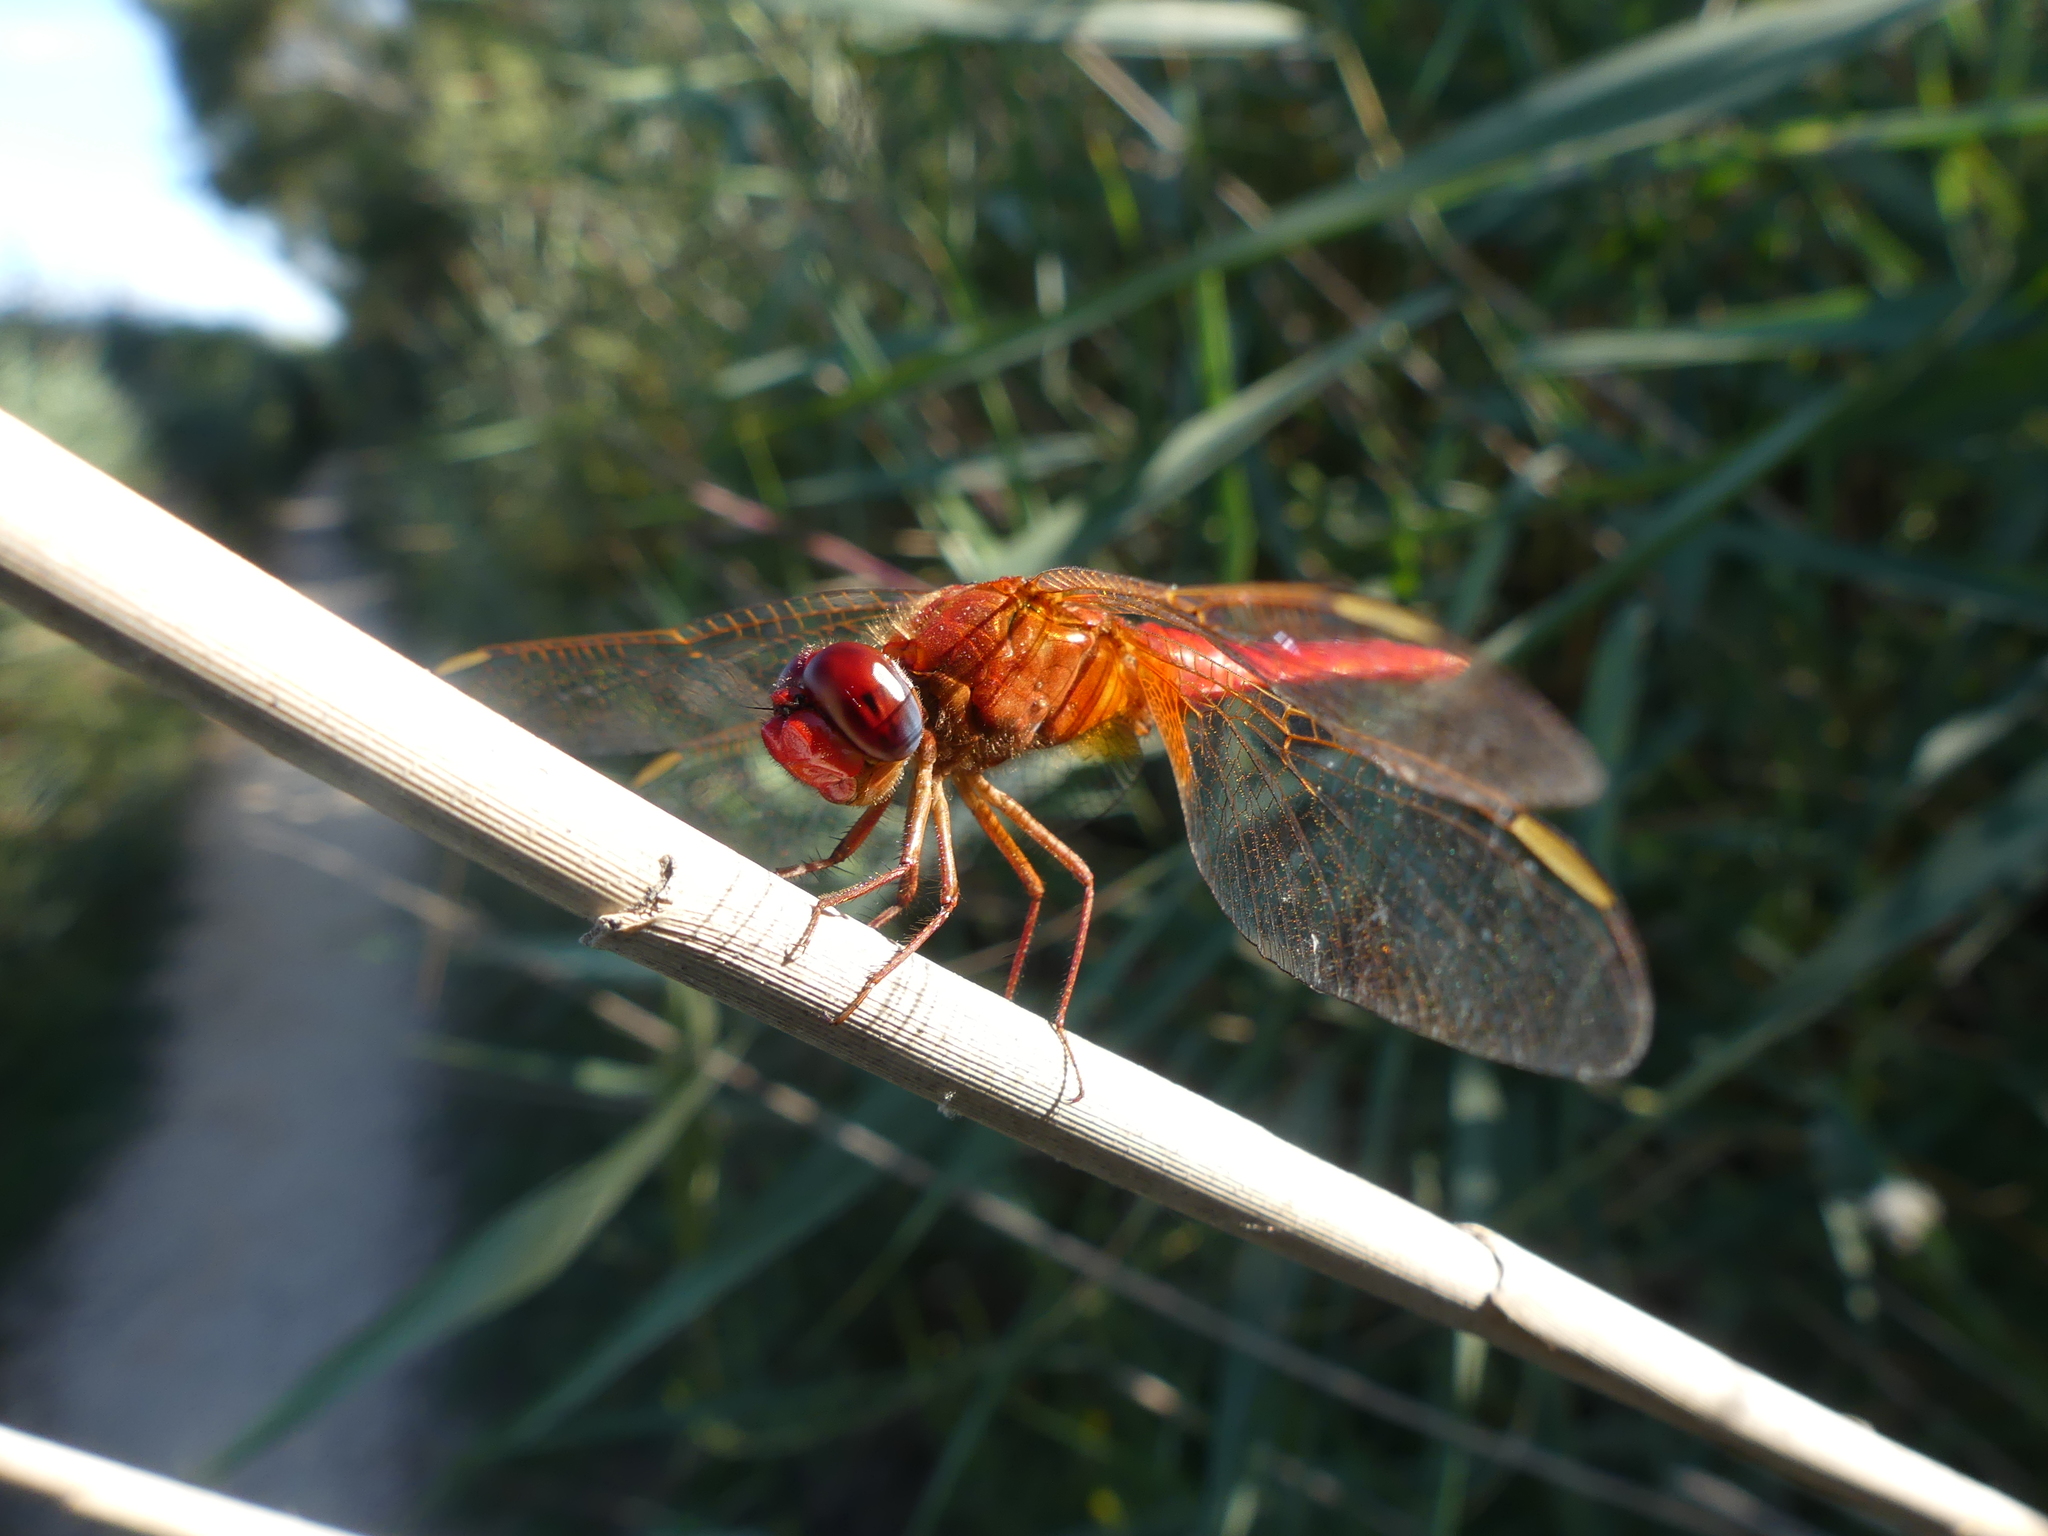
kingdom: Animalia
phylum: Arthropoda
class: Insecta
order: Odonata
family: Libellulidae
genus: Crocothemis
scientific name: Crocothemis erythraea
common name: Scarlet dragonfly
